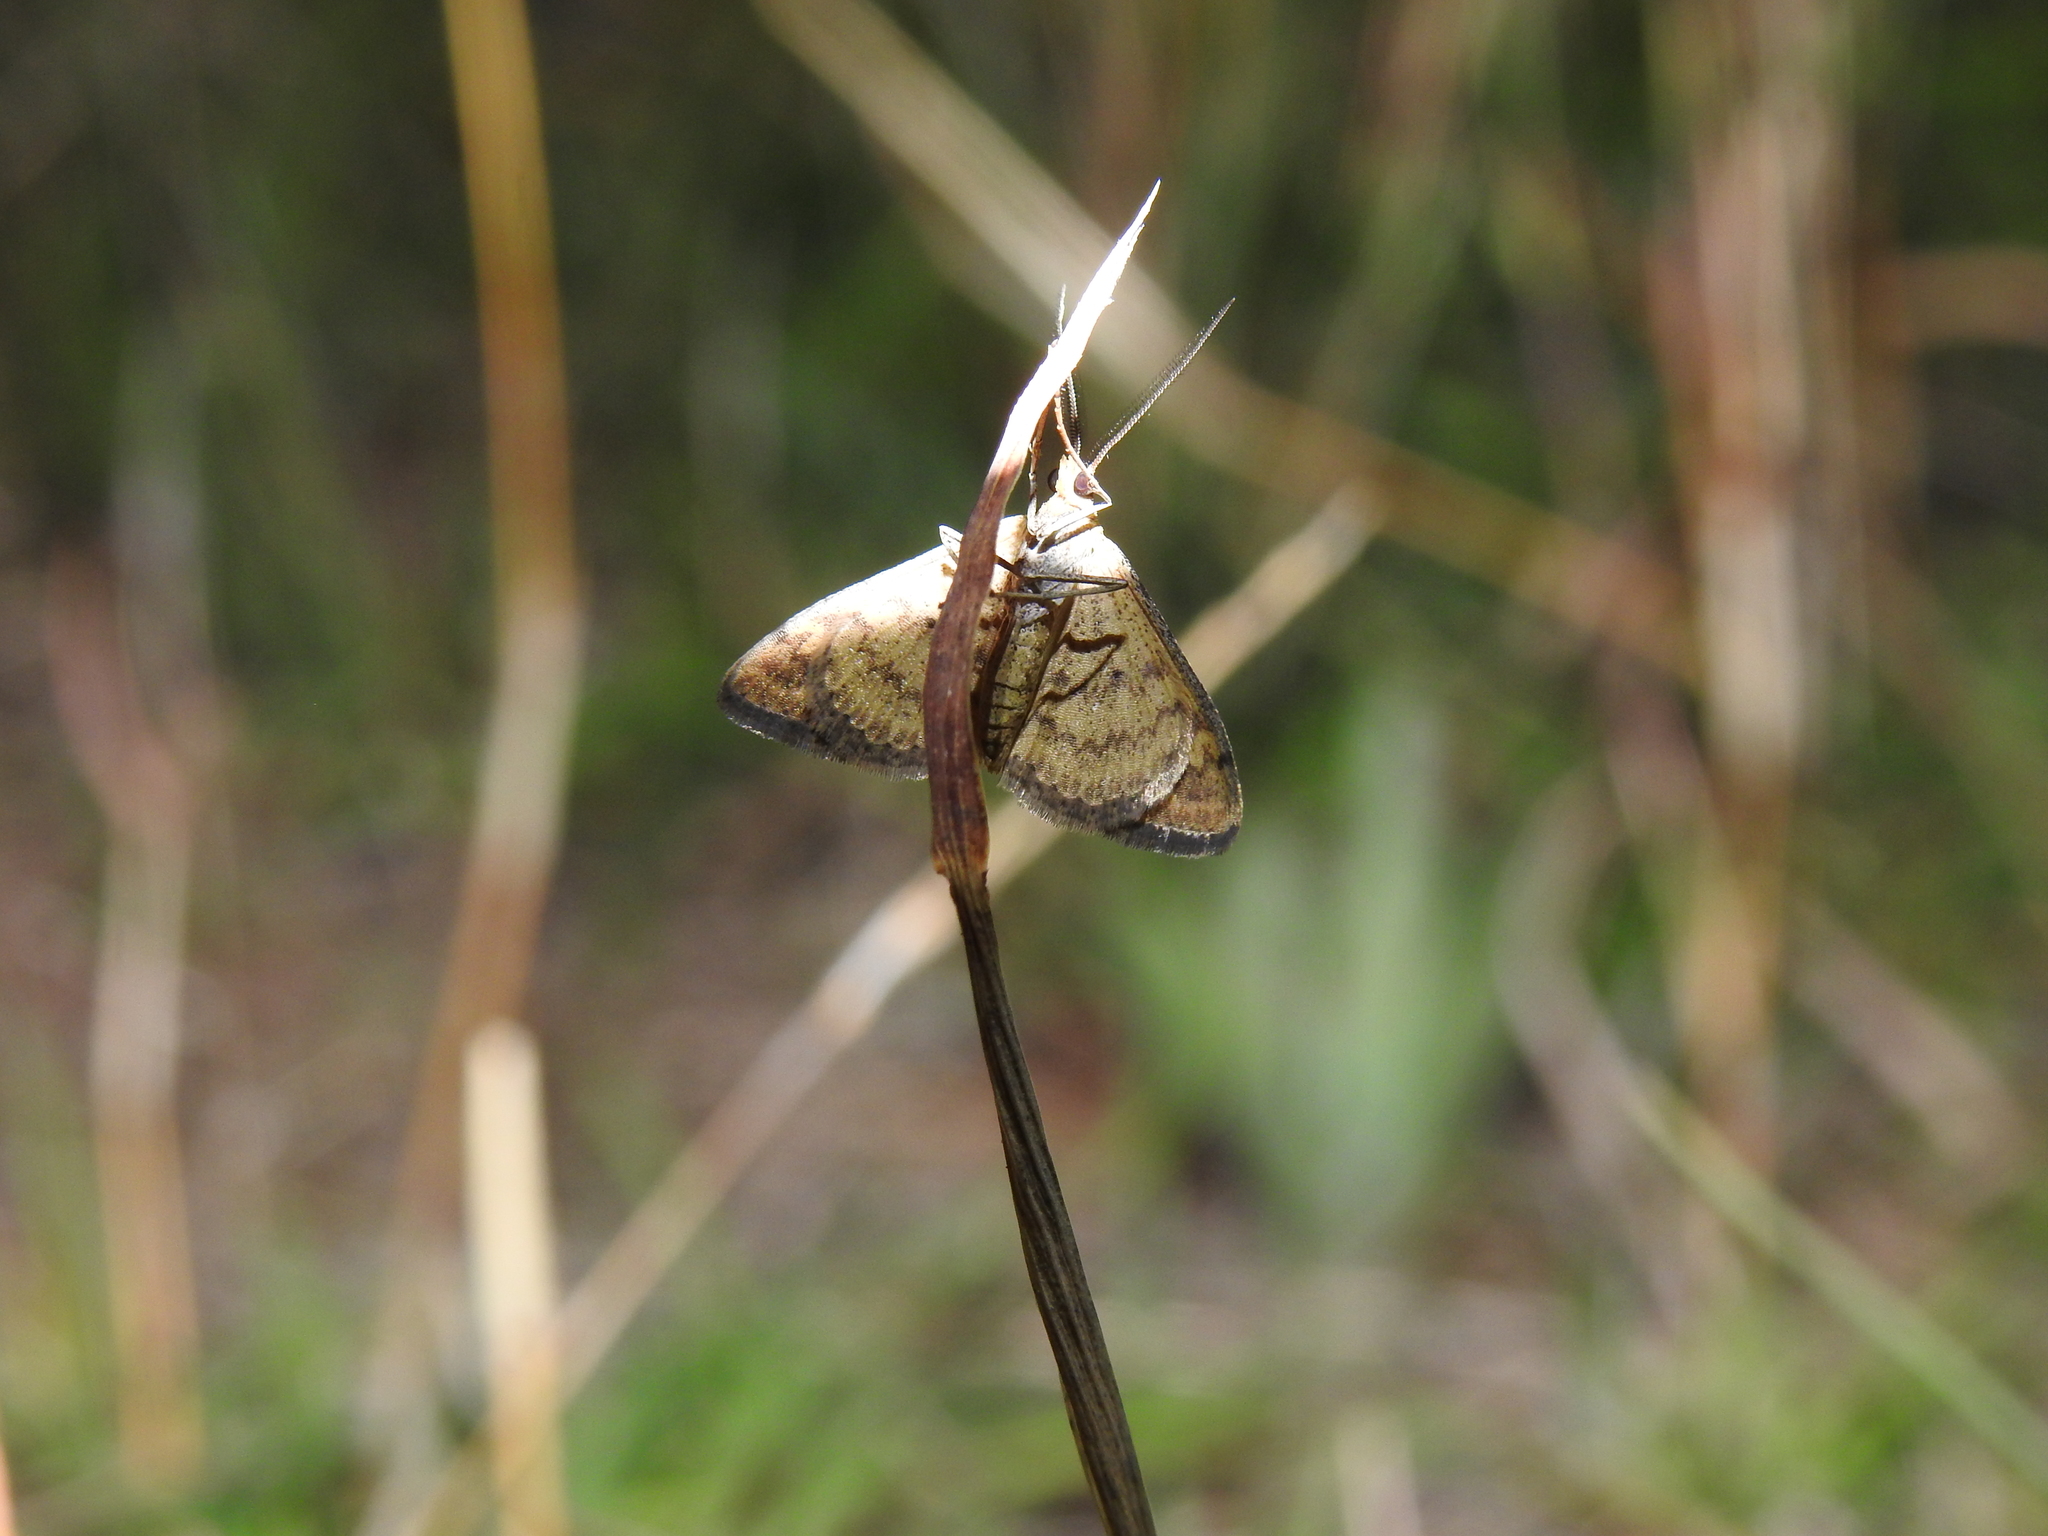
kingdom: Animalia
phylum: Arthropoda
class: Insecta
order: Lepidoptera
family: Geometridae
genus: Scopula
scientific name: Scopula rubraria
